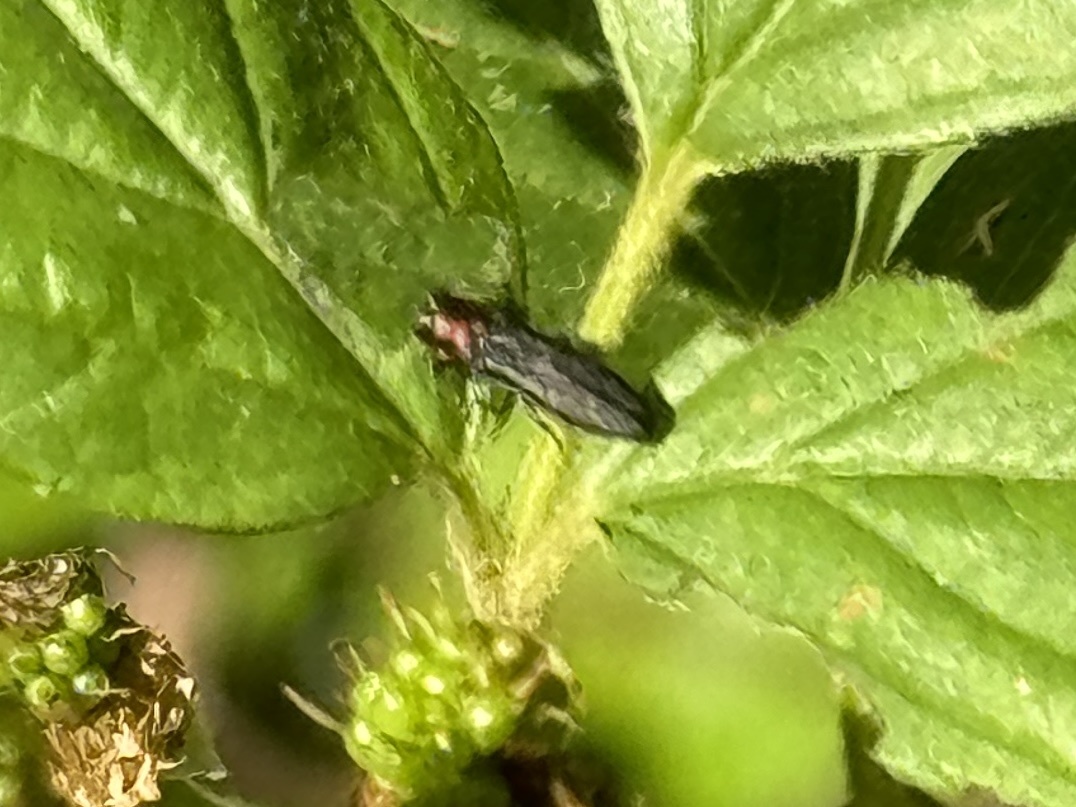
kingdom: Animalia
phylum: Arthropoda
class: Insecta
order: Coleoptera
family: Buprestidae
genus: Agrilus
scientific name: Agrilus ruficollis
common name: Red-necked cane borer beetle
